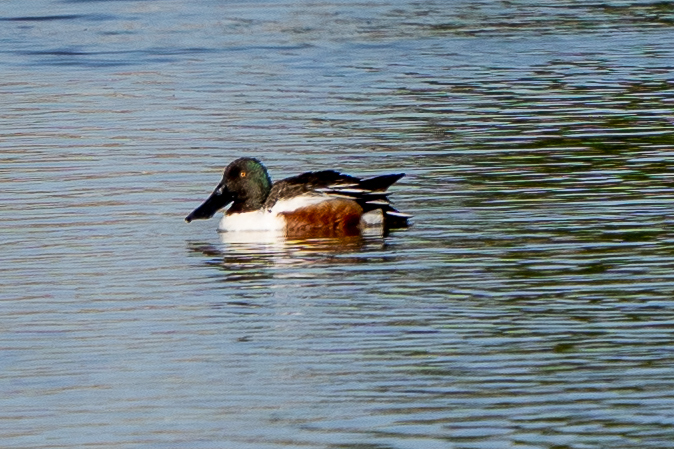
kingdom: Animalia
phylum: Chordata
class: Aves
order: Anseriformes
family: Anatidae
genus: Spatula
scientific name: Spatula clypeata
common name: Northern shoveler
